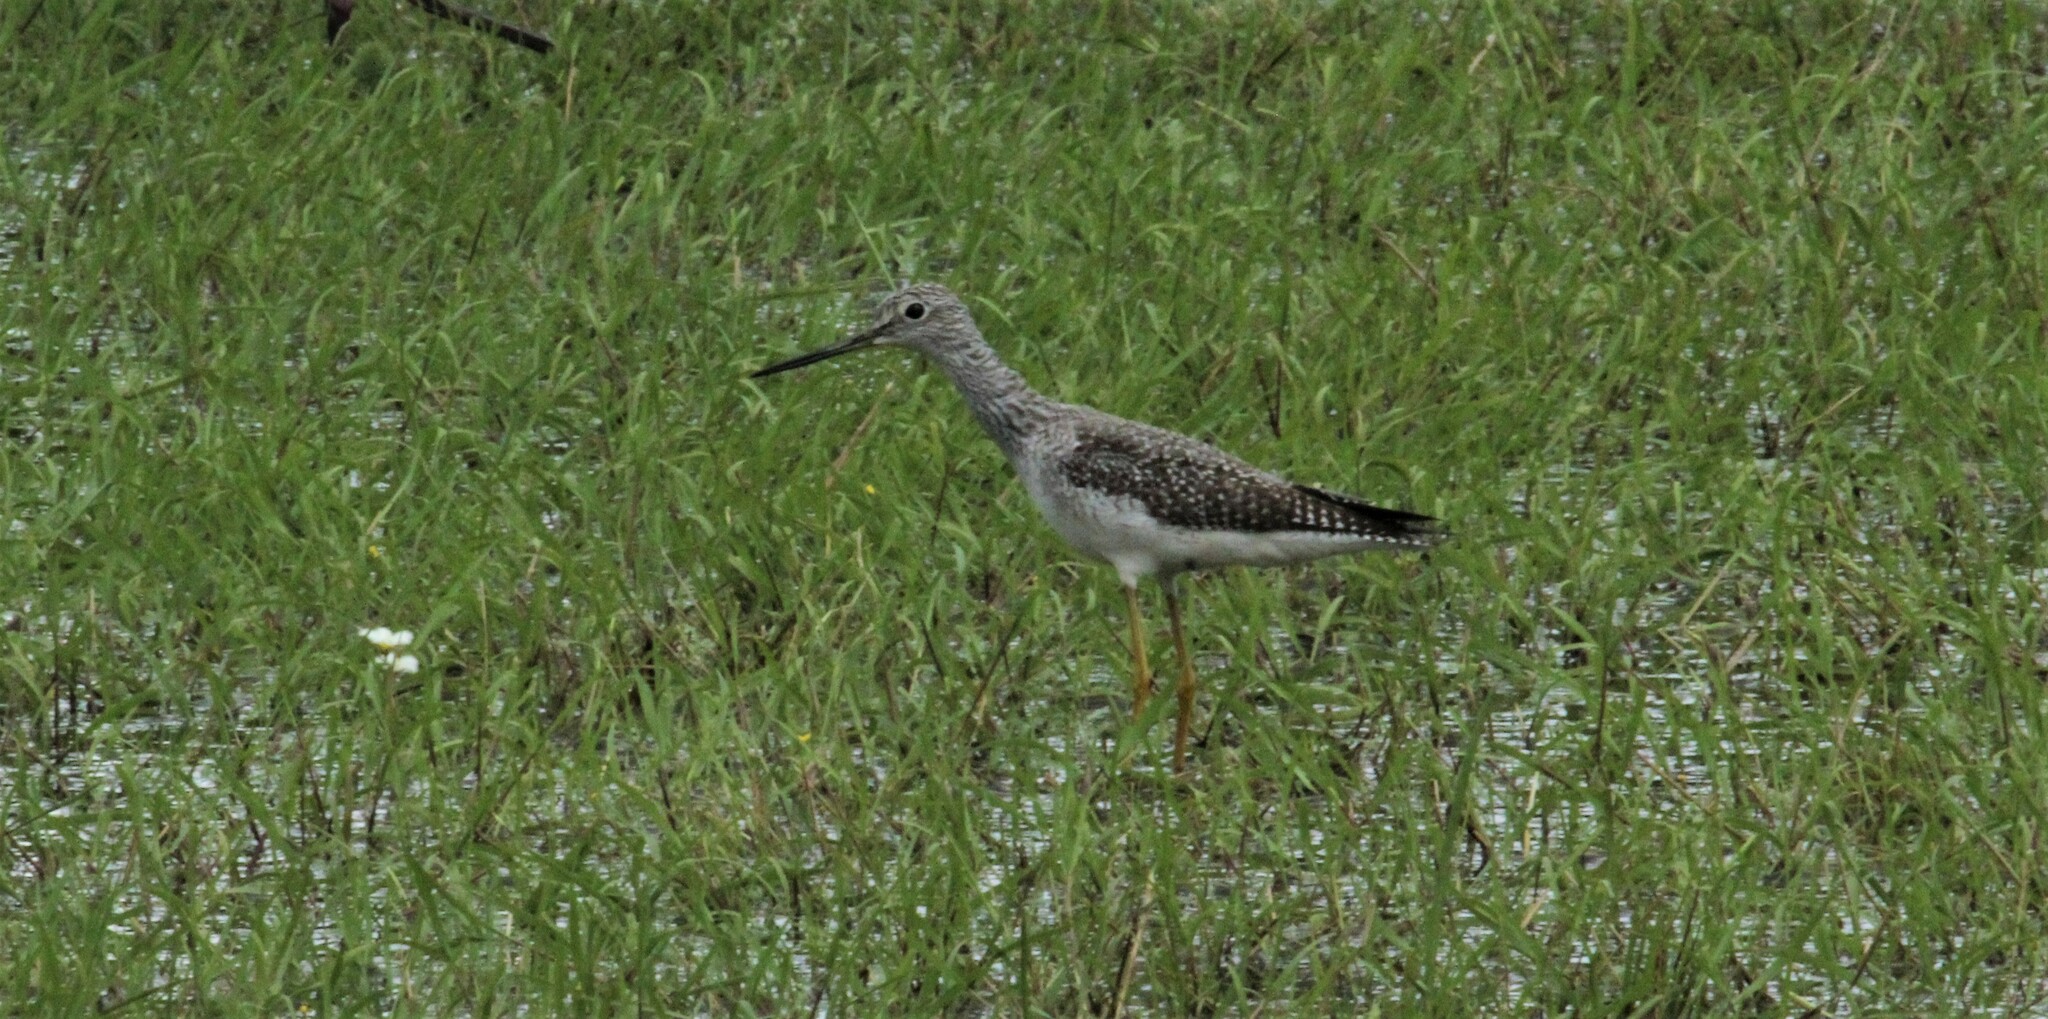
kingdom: Animalia
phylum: Chordata
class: Aves
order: Charadriiformes
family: Scolopacidae
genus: Tringa
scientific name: Tringa melanoleuca
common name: Greater yellowlegs
